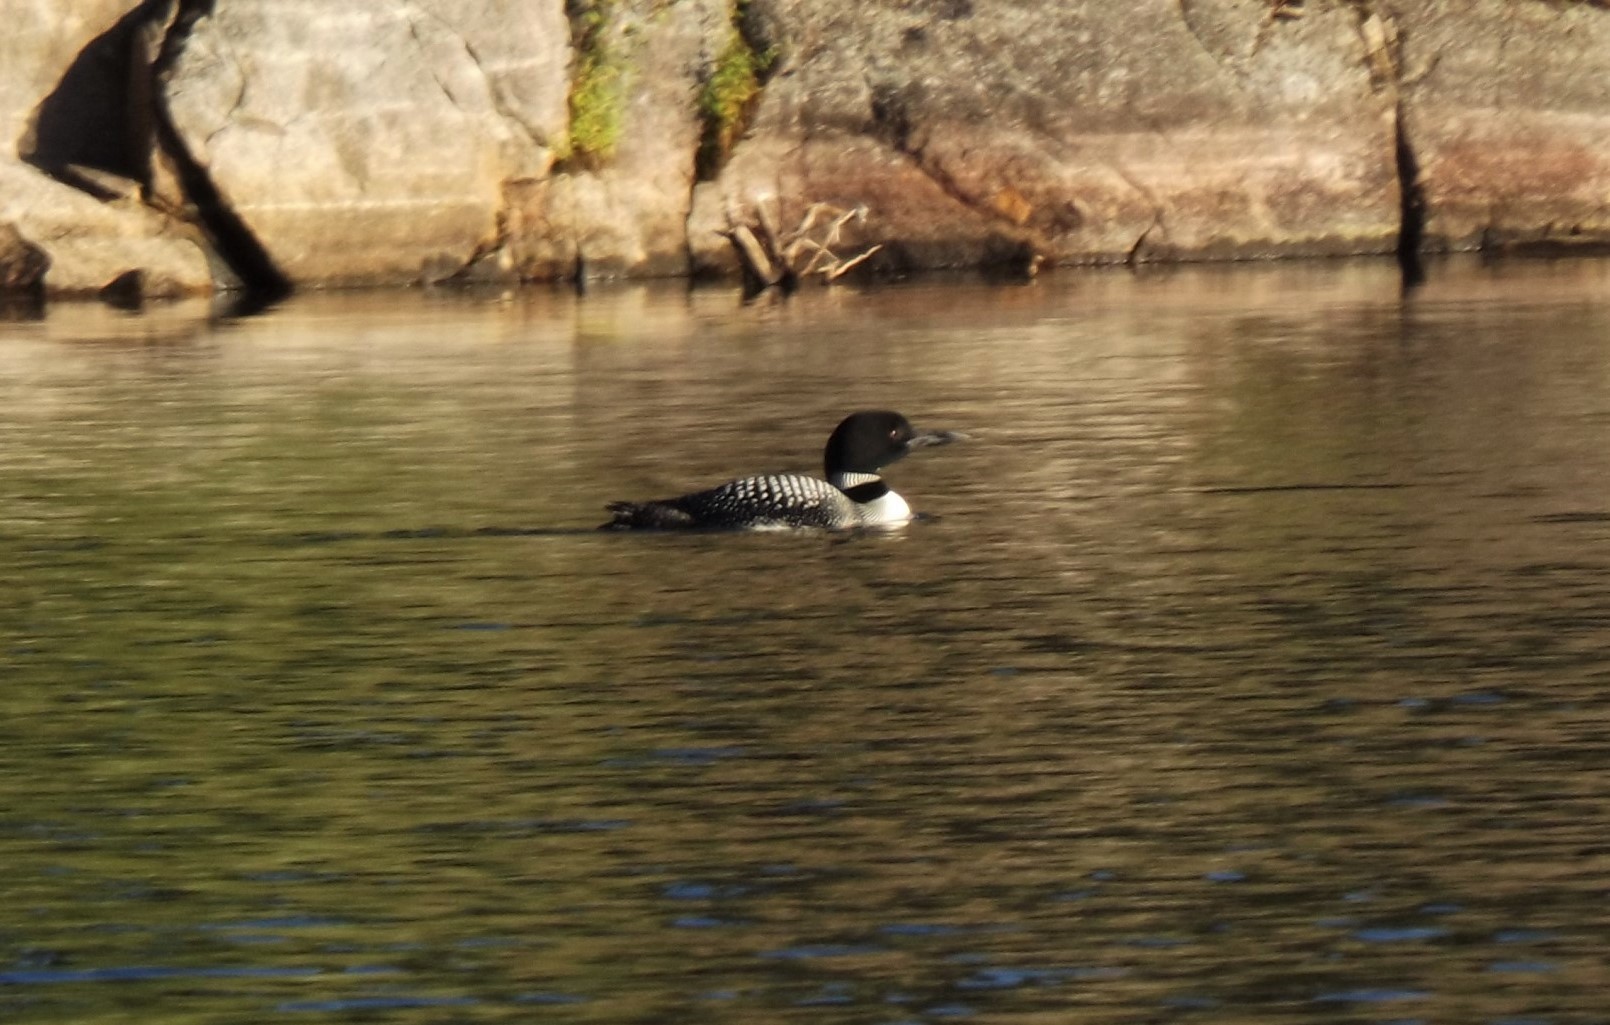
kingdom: Animalia
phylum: Chordata
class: Aves
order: Gaviiformes
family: Gaviidae
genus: Gavia
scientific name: Gavia immer
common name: Common loon
